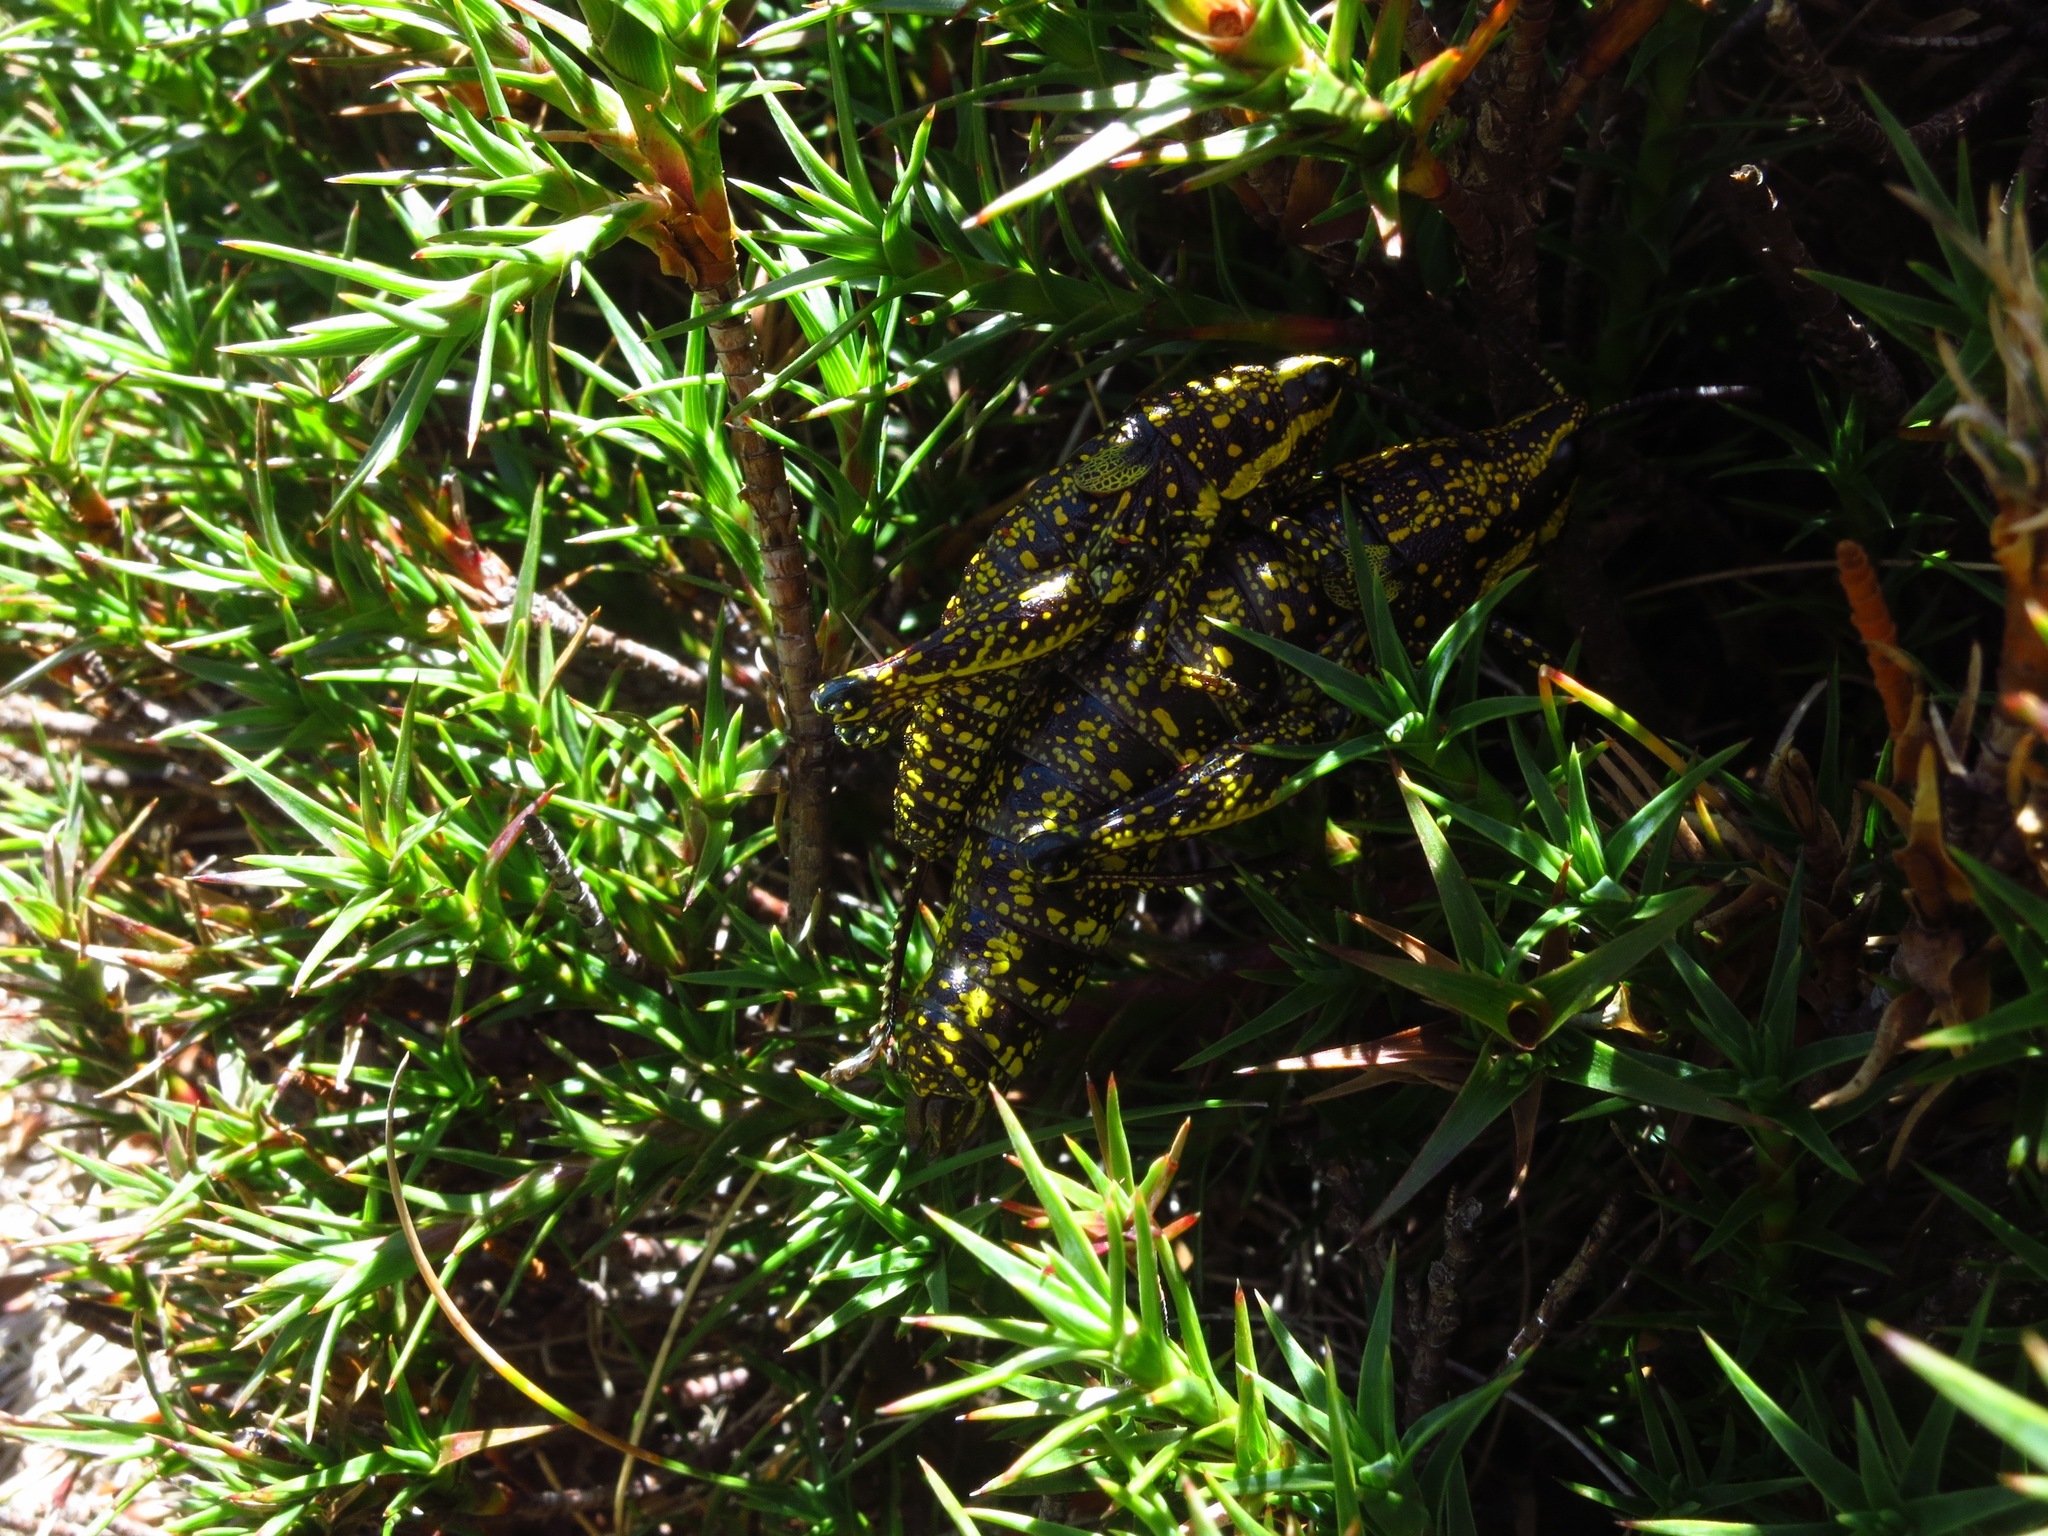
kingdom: Animalia
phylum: Arthropoda
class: Insecta
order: Orthoptera
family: Pyrgomorphidae
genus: Monistria
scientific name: Monistria concinna
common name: Southern pyrgomorph
